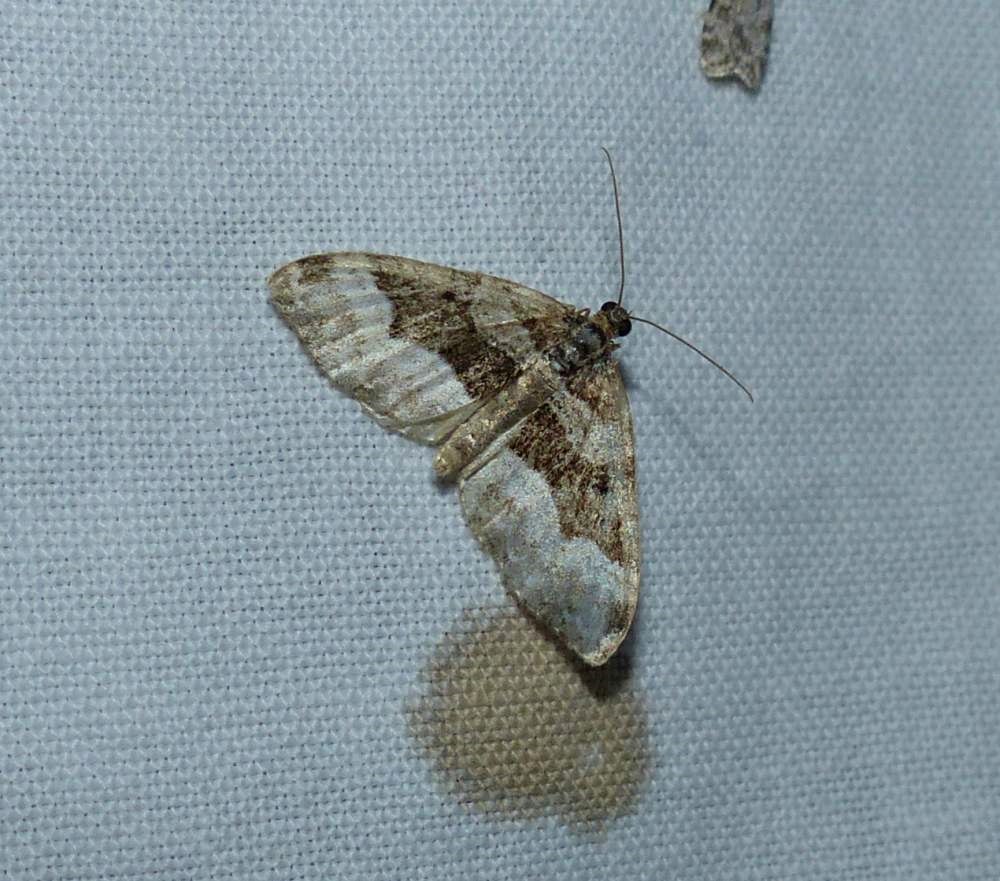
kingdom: Animalia
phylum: Arthropoda
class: Insecta
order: Lepidoptera
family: Geometridae
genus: Euphyia
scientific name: Euphyia intermediata
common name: Sharp-angled carpet
